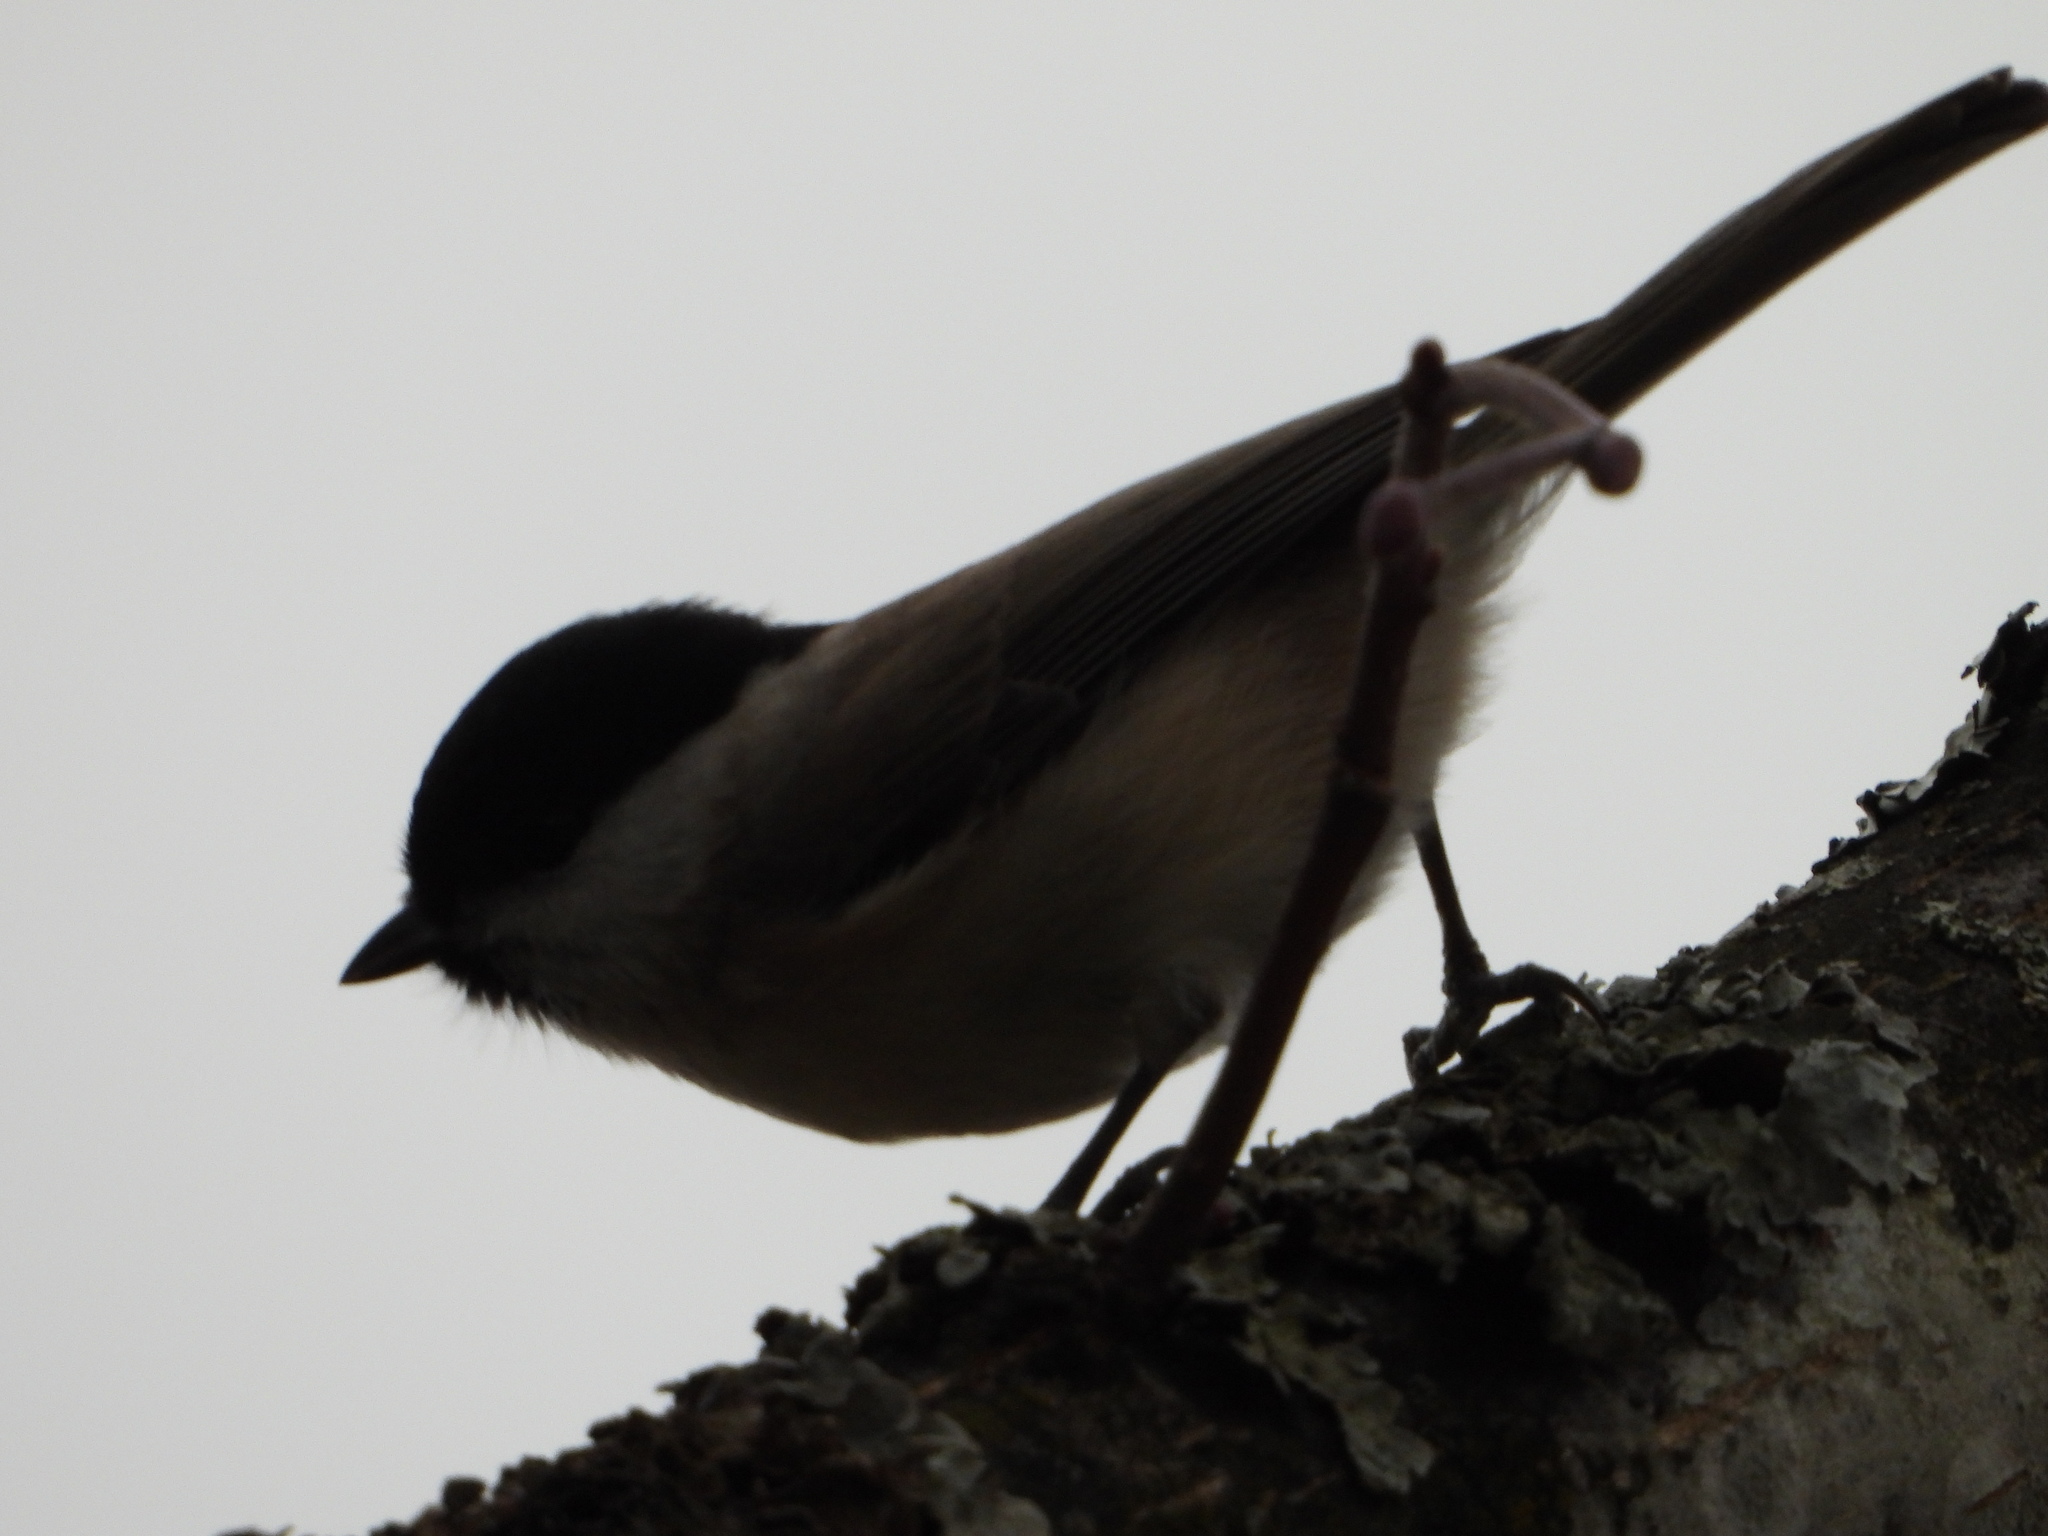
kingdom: Animalia
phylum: Chordata
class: Aves
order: Passeriformes
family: Paridae
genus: Poecile
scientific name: Poecile palustris
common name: Marsh tit
